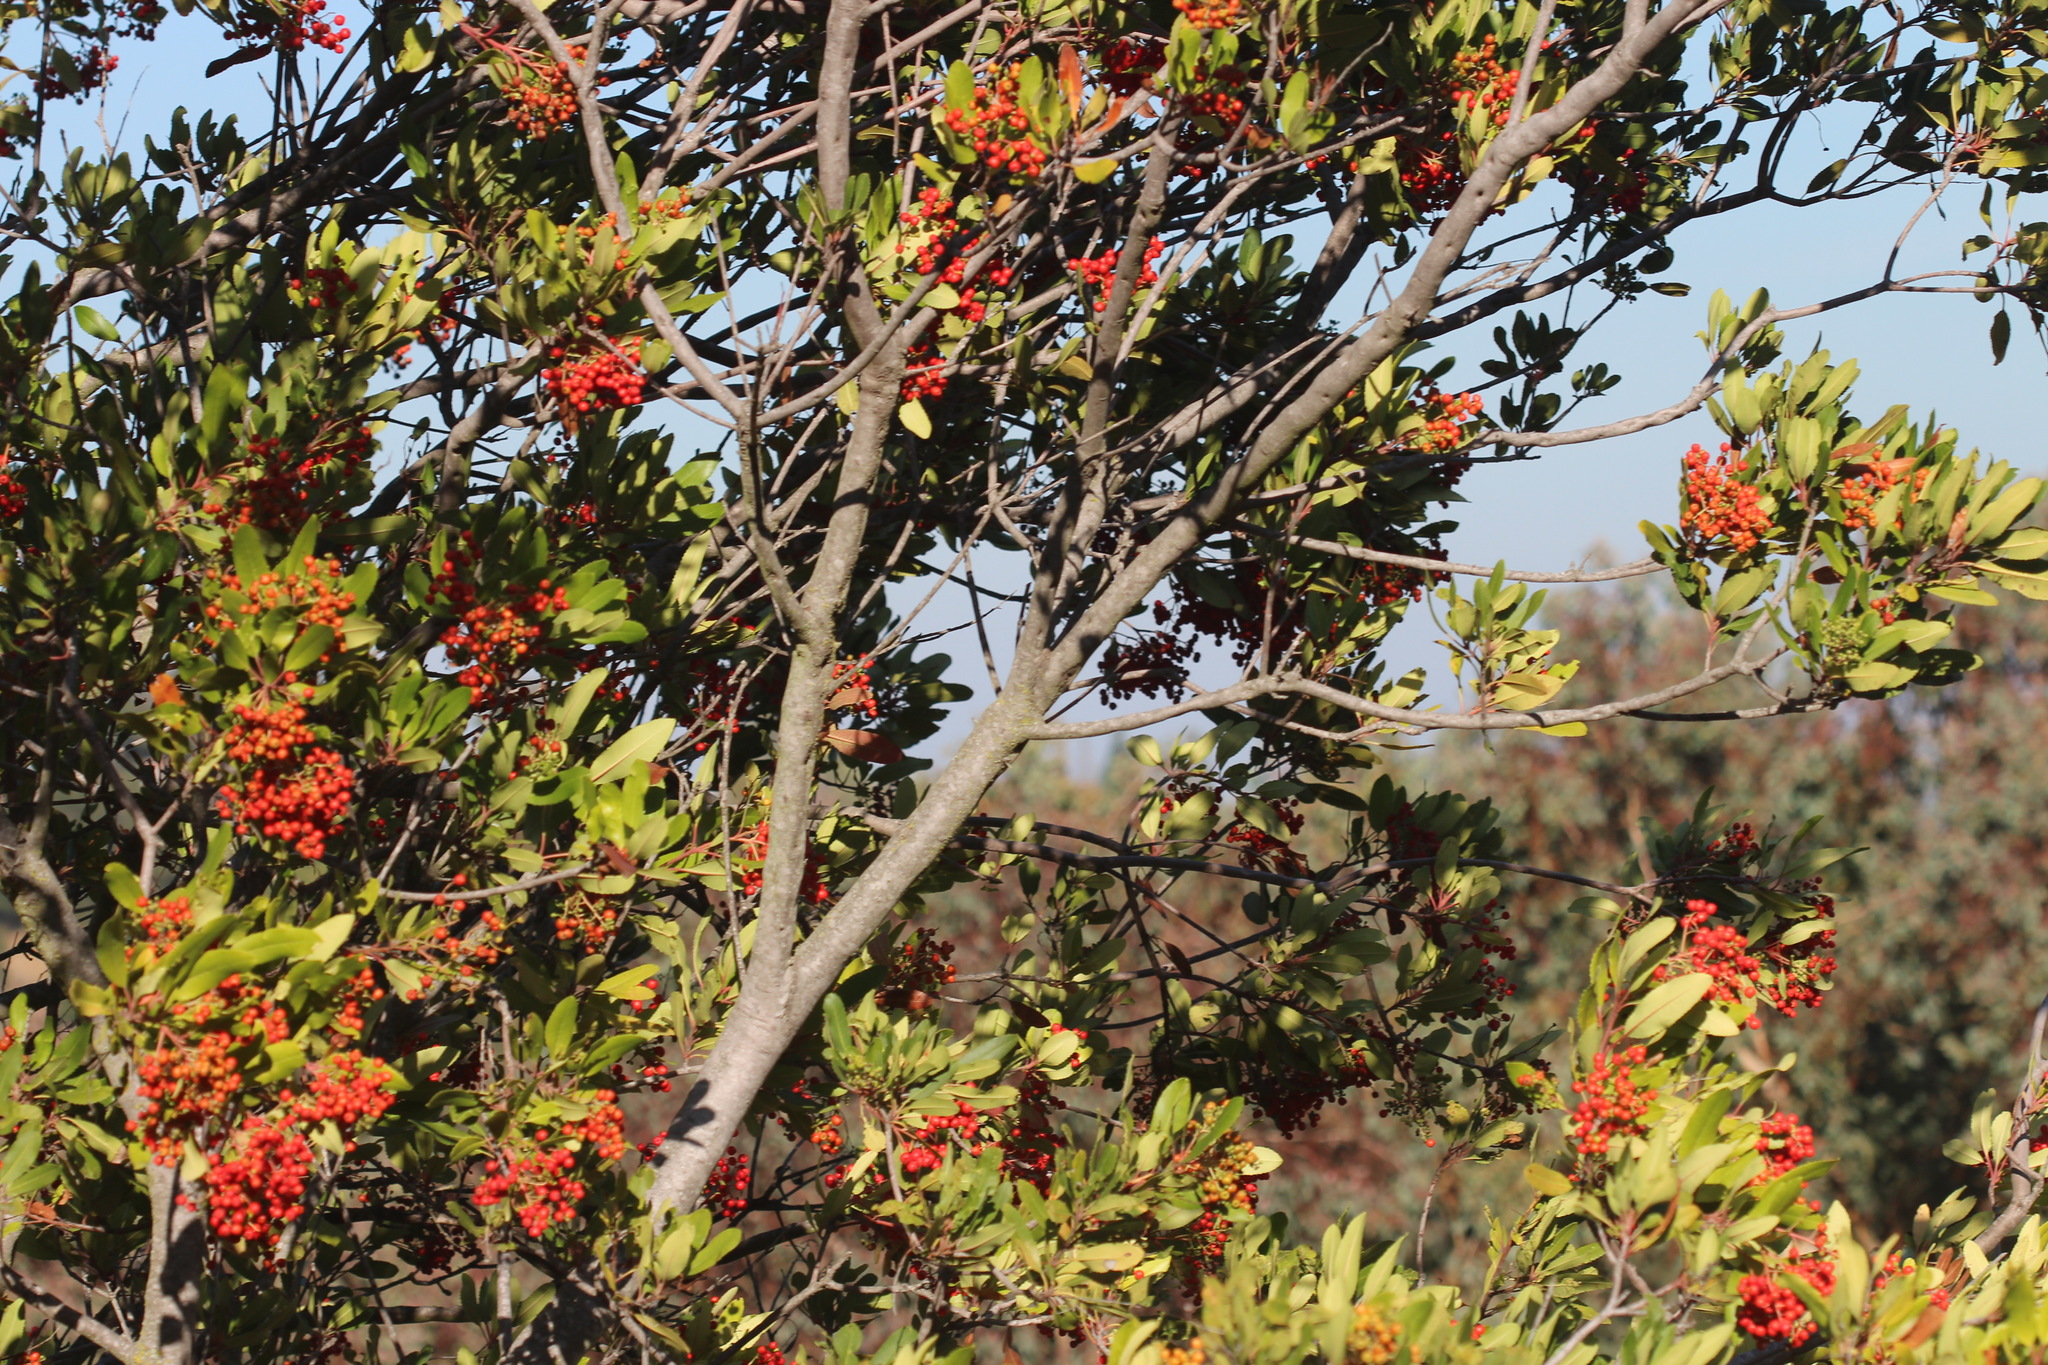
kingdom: Plantae
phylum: Tracheophyta
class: Magnoliopsida
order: Rosales
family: Rosaceae
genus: Heteromeles
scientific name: Heteromeles arbutifolia
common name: California-holly
